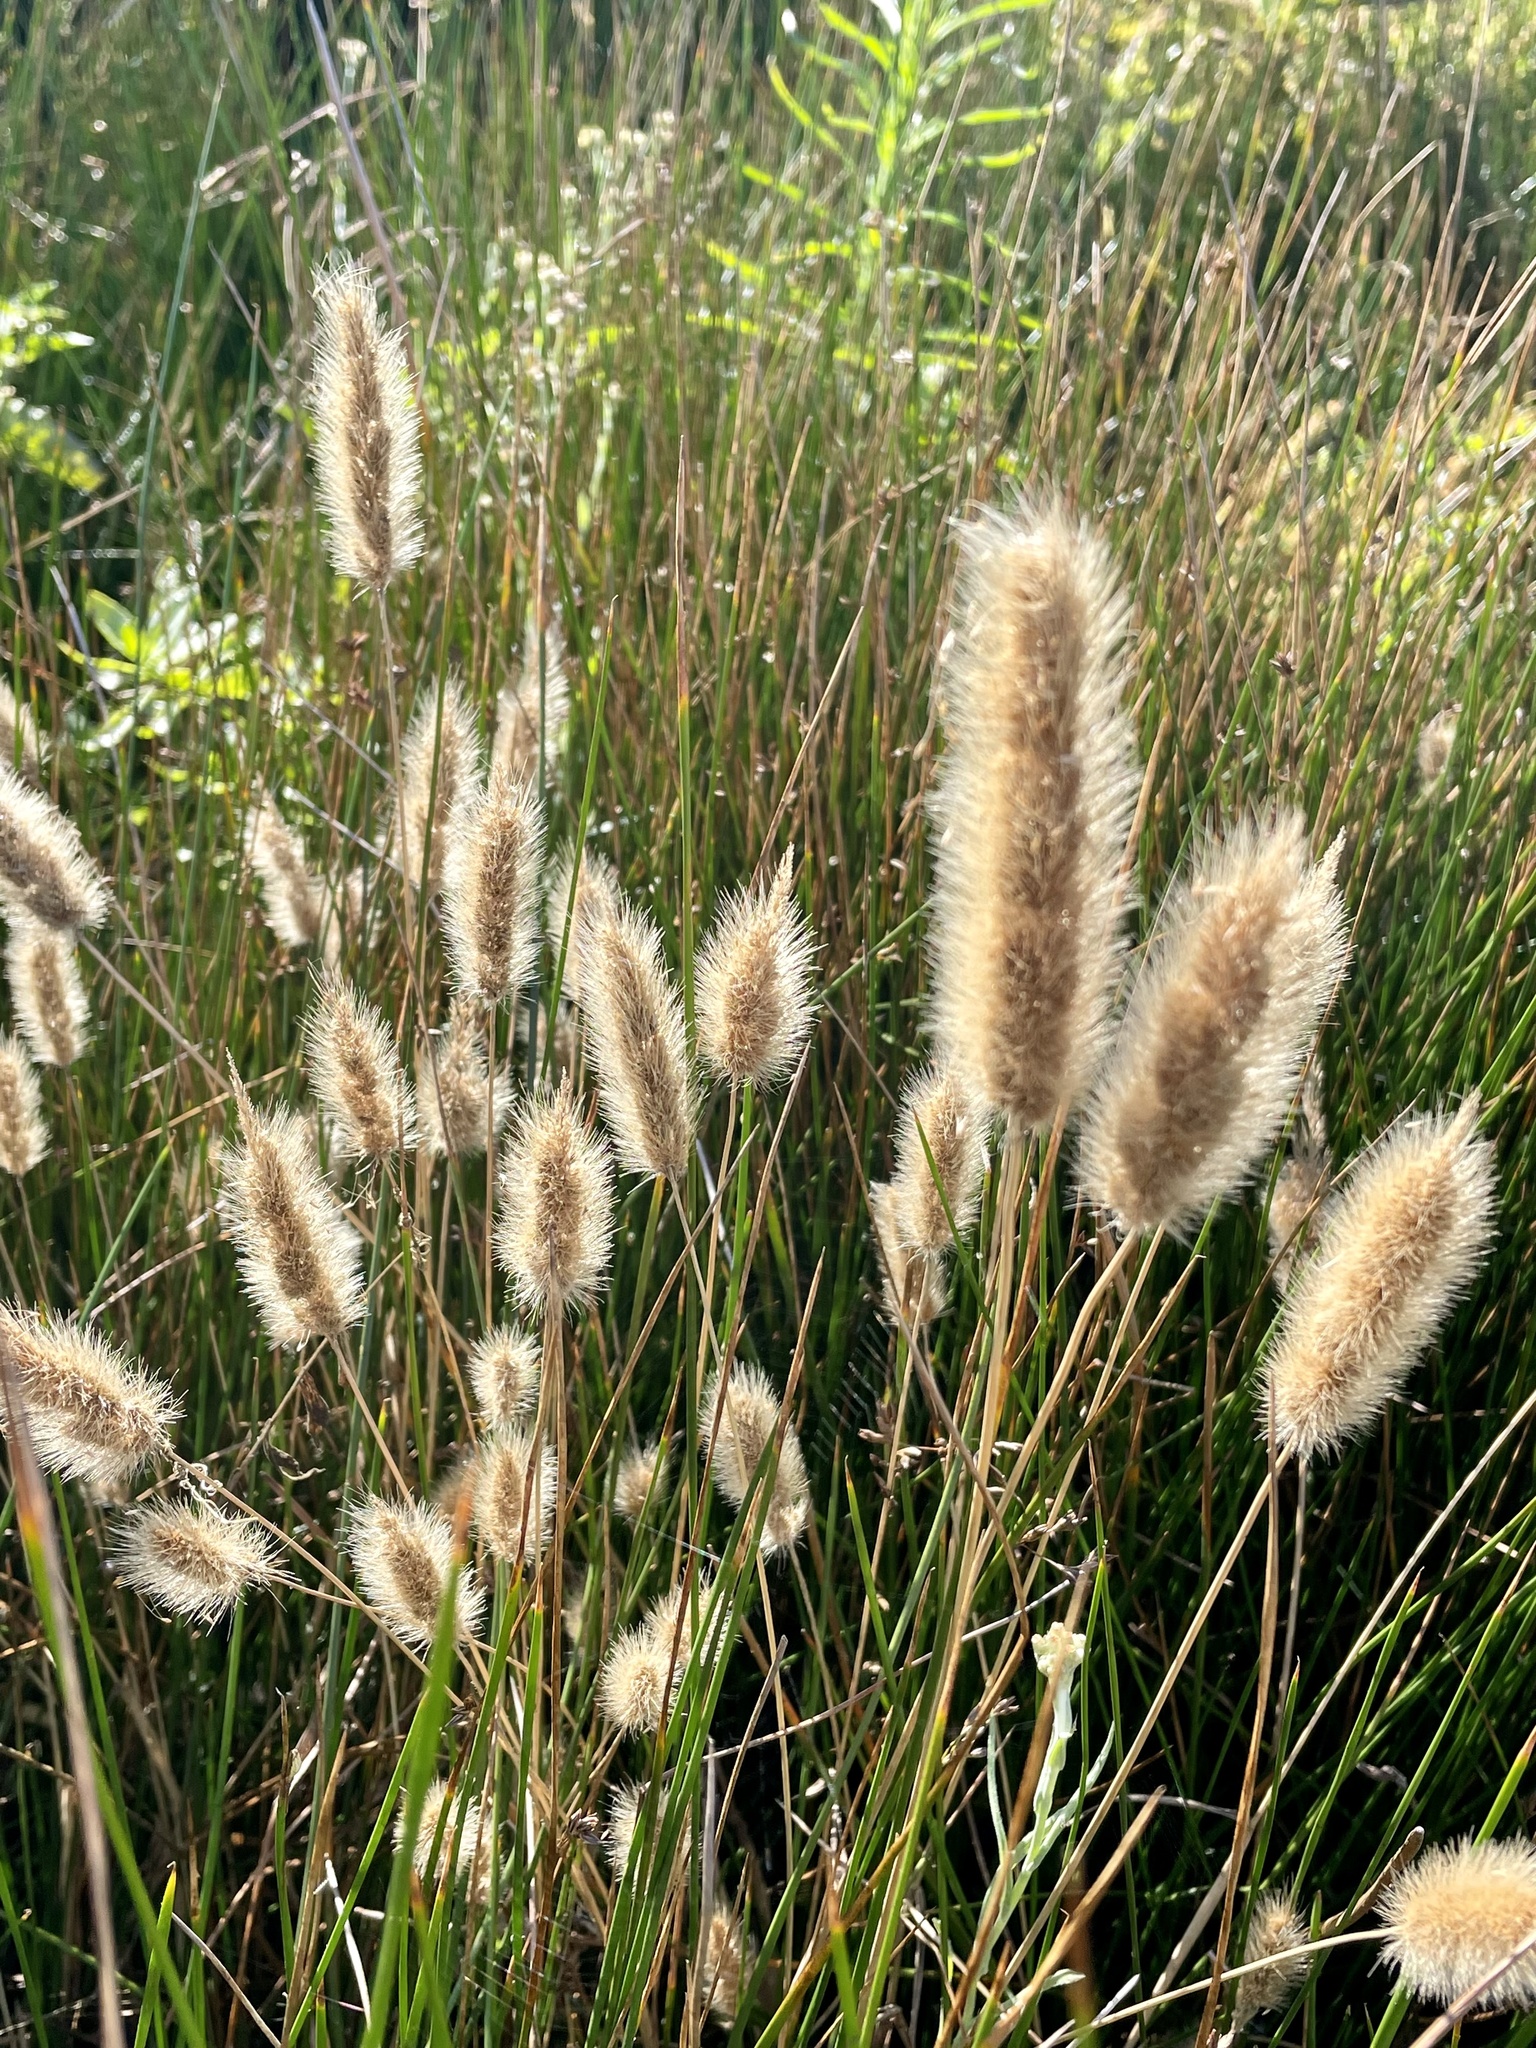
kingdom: Plantae
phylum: Tracheophyta
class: Liliopsida
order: Poales
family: Poaceae
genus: Polypogon
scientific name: Polypogon monspeliensis
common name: Annual rabbitsfoot grass
